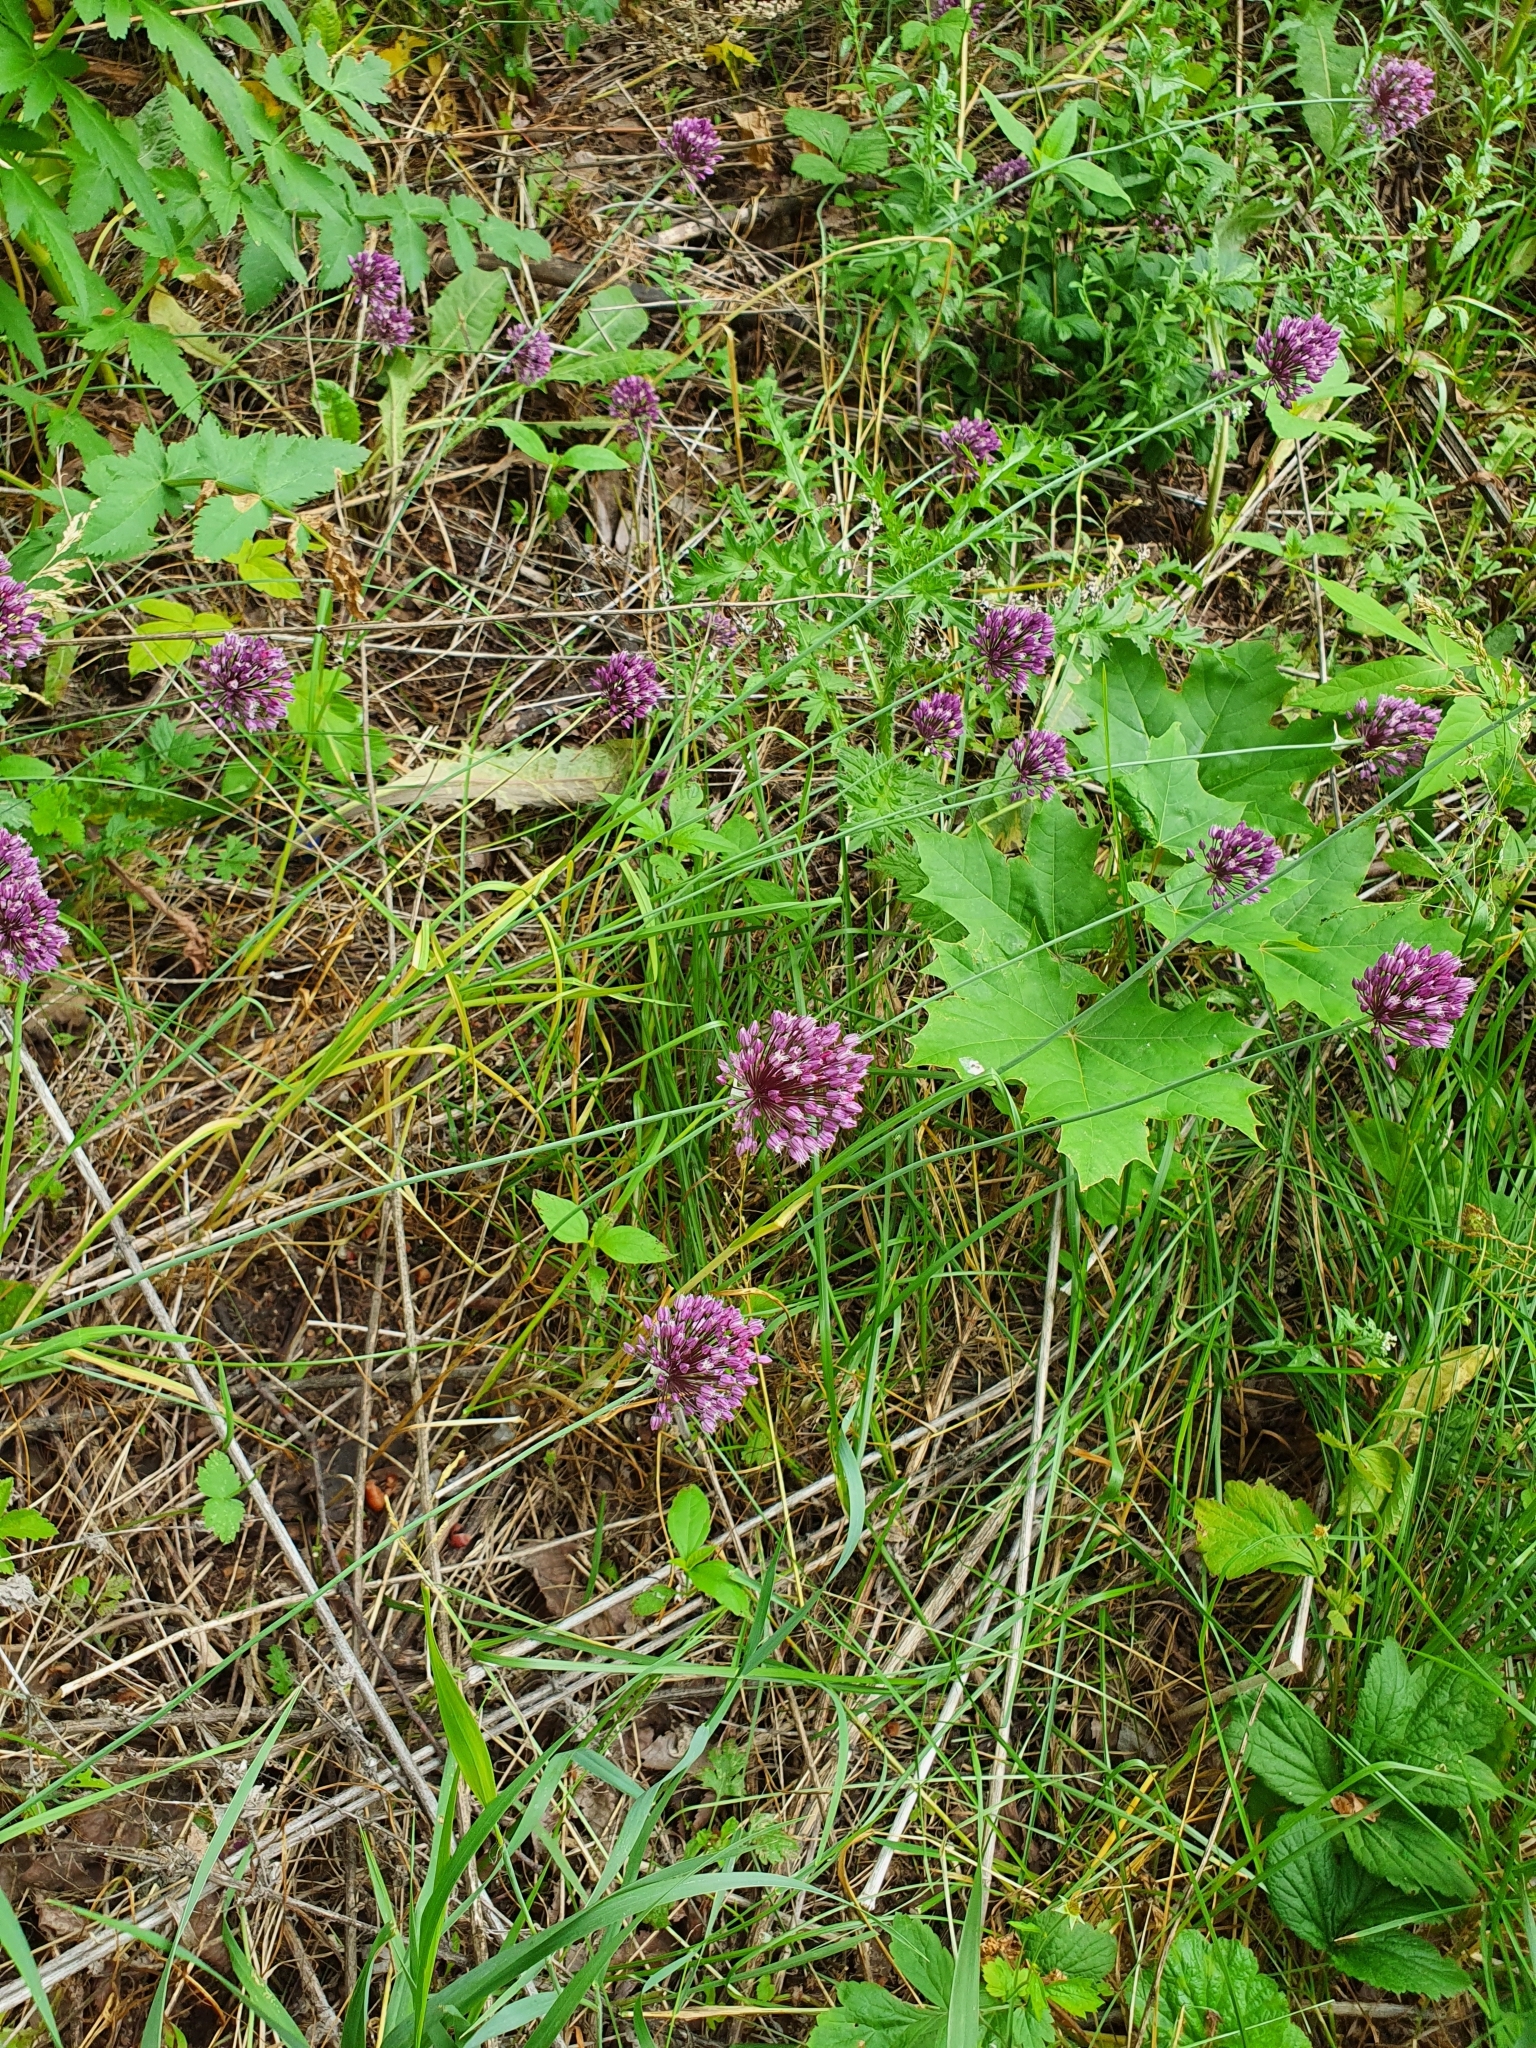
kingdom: Plantae
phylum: Tracheophyta
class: Liliopsida
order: Asparagales
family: Amaryllidaceae
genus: Allium
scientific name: Allium rotundum
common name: Sand leek
